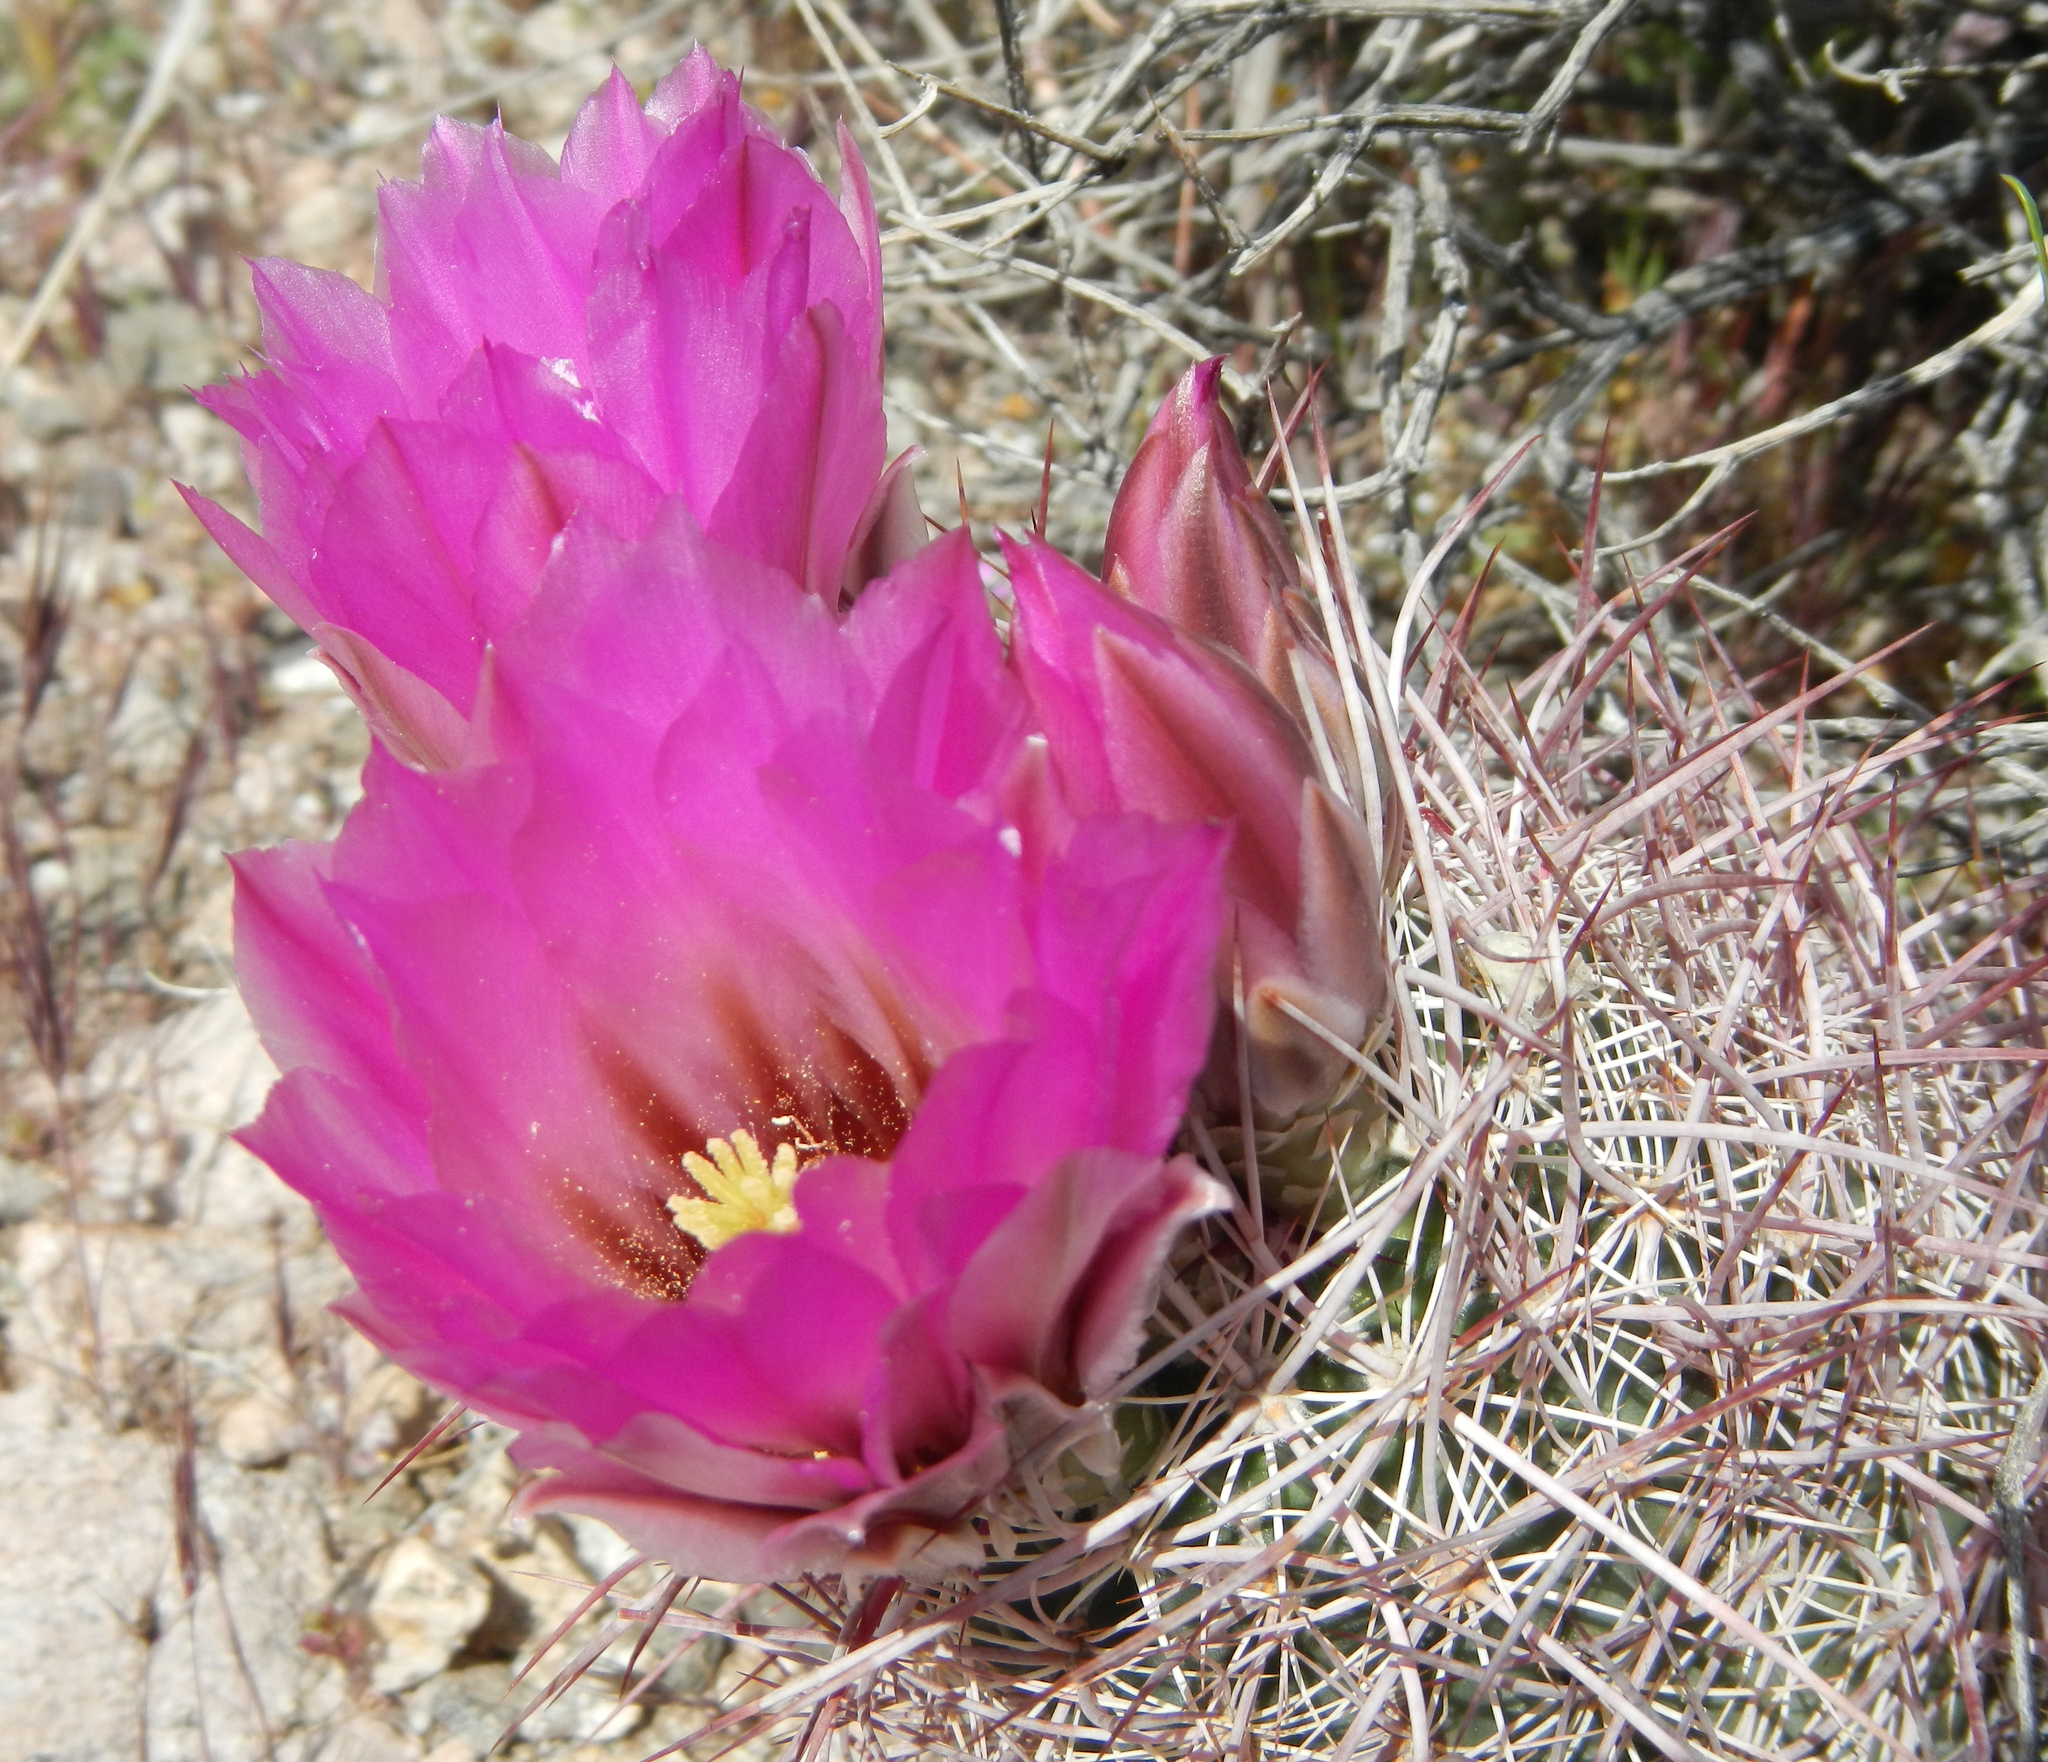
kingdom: Plantae
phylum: Tracheophyta
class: Magnoliopsida
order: Caryophyllales
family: Cactaceae
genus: Sclerocactus
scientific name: Sclerocactus johnsonii
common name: Eight-spine fishhook cactus
